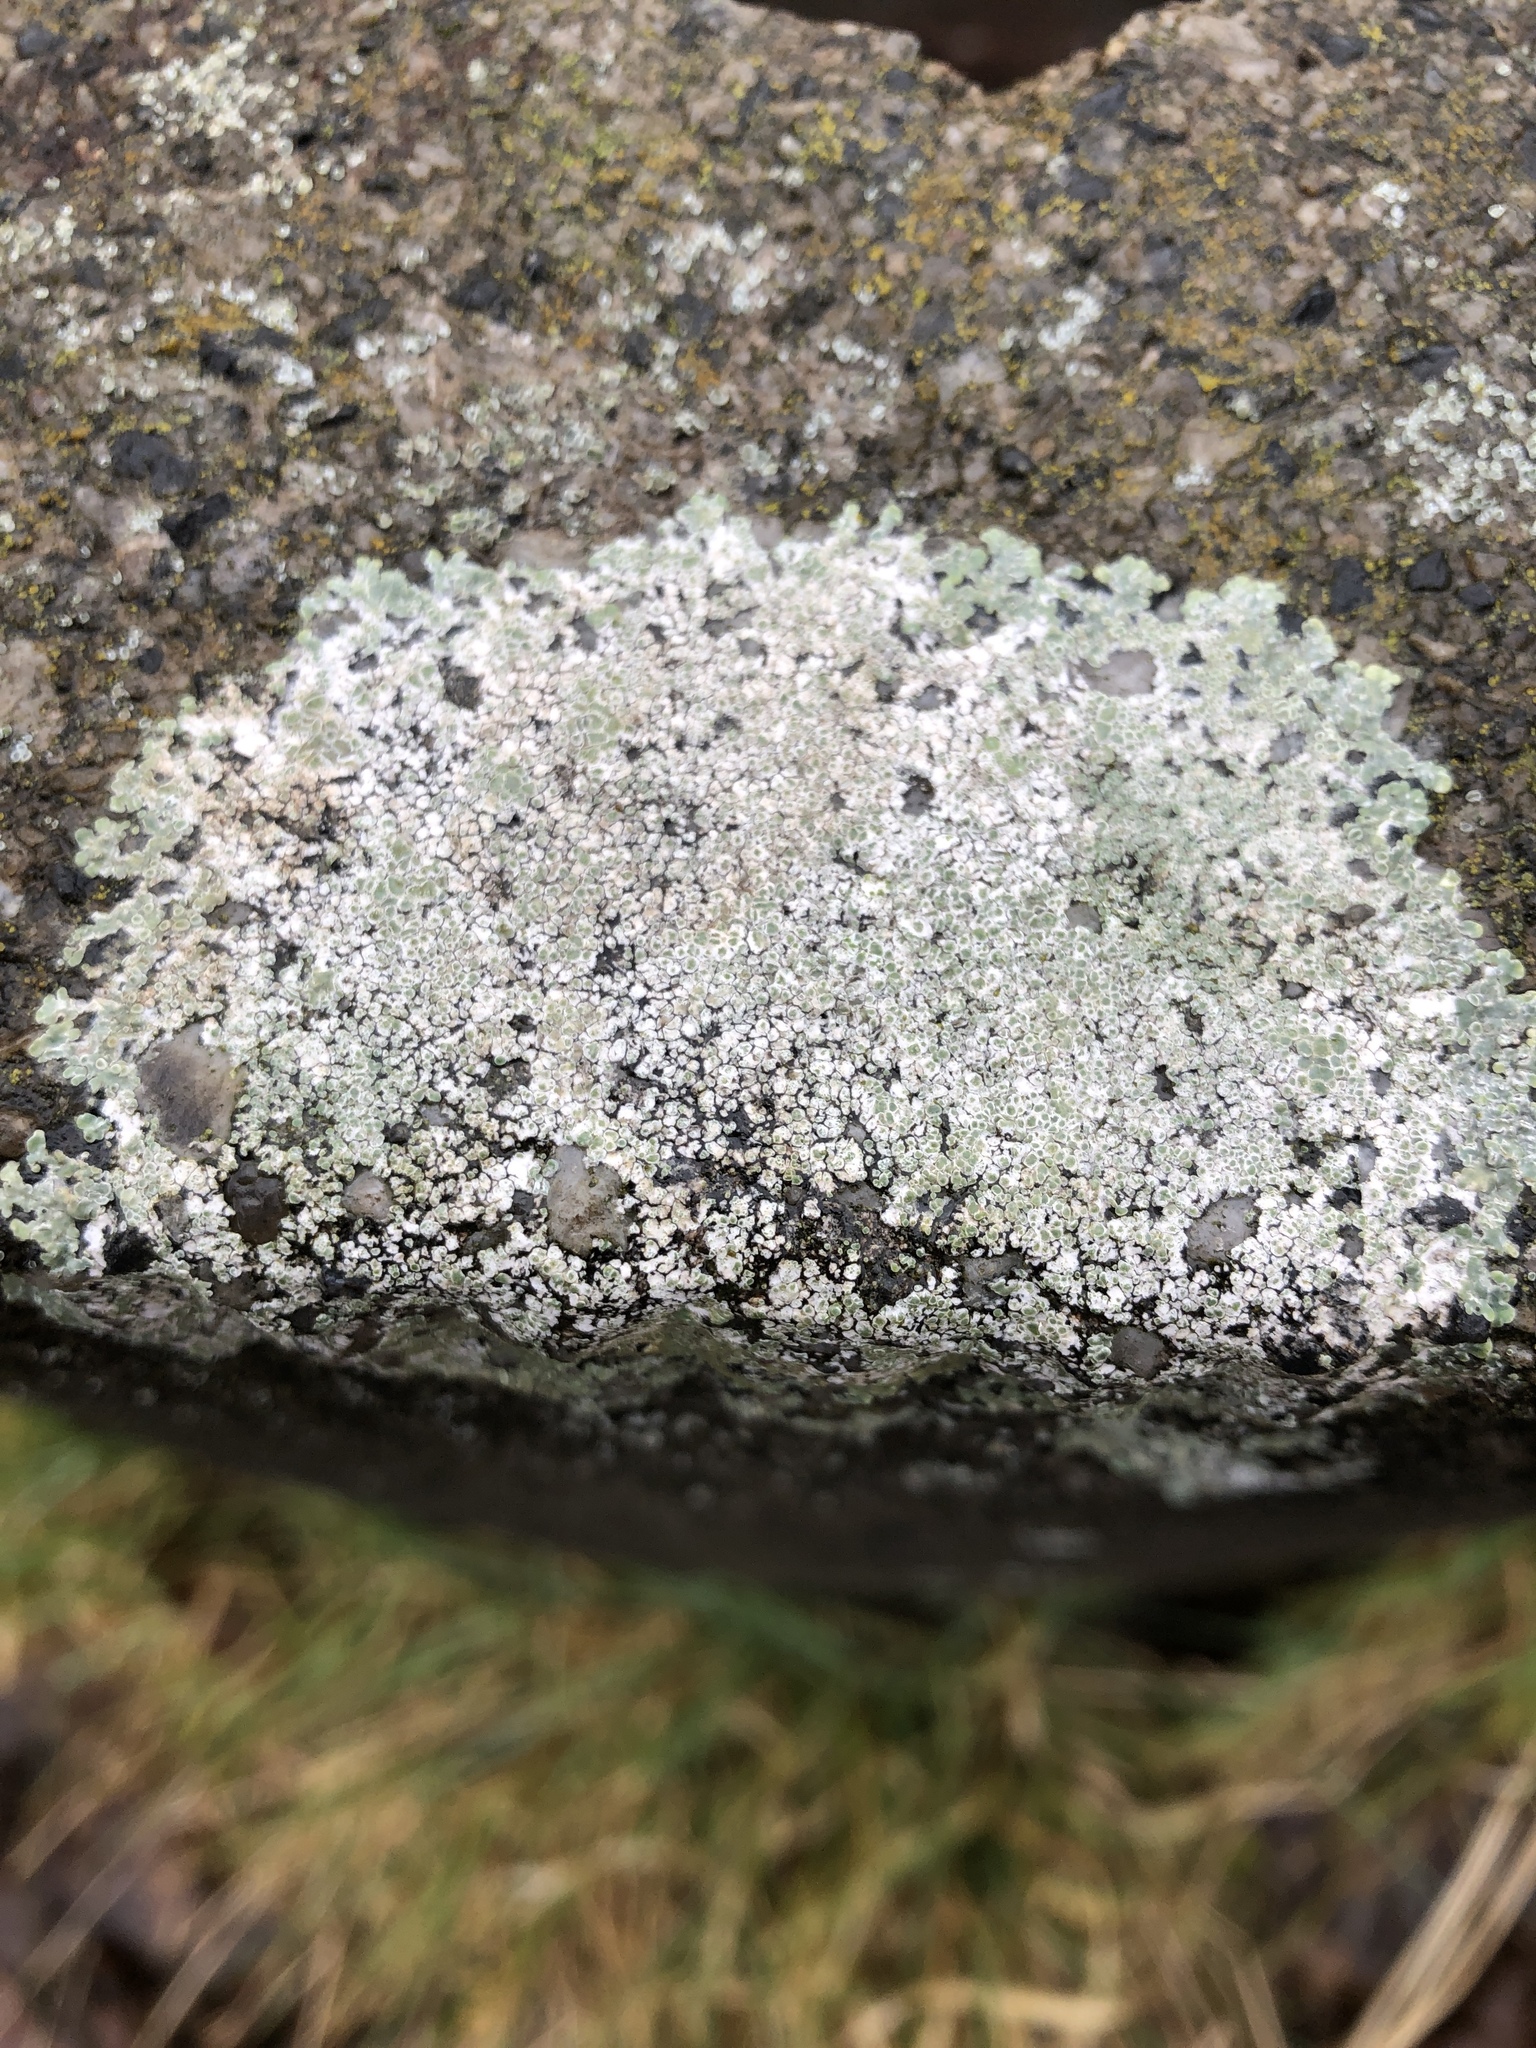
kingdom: Fungi
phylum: Ascomycota
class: Lecanoromycetes
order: Lecanorales
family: Lecanoraceae
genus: Protoparmeliopsis
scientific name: Protoparmeliopsis muralis
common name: Stonewall rim lichen
